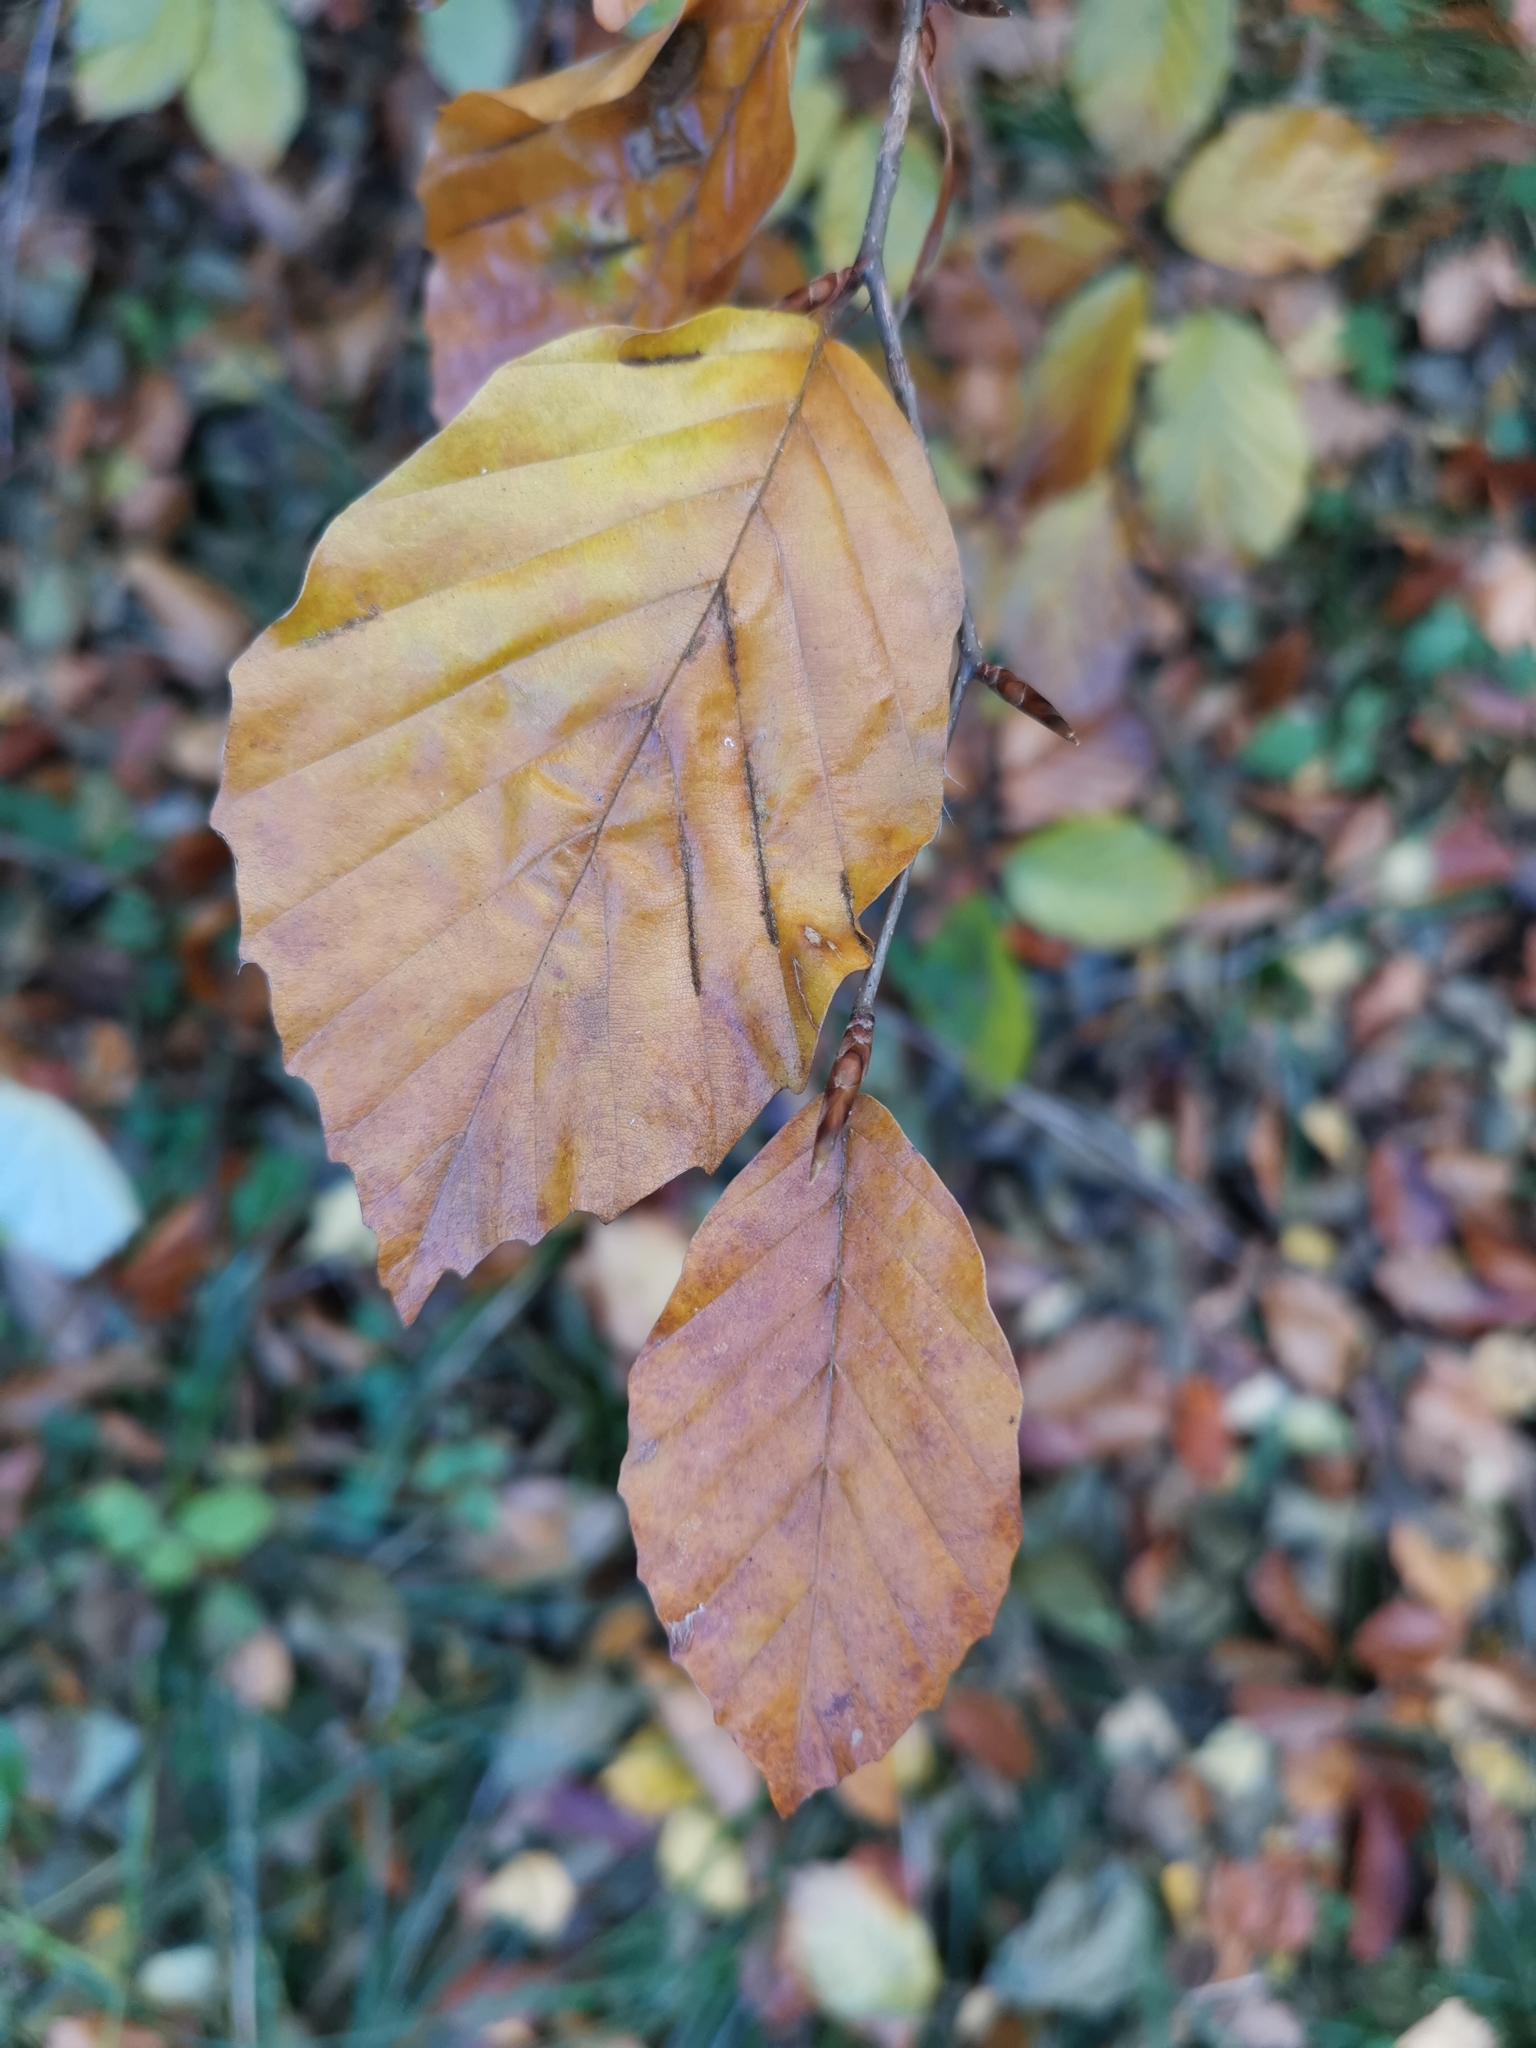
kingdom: Plantae
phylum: Tracheophyta
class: Magnoliopsida
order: Fagales
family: Fagaceae
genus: Fagus
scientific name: Fagus sylvatica
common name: Beech
